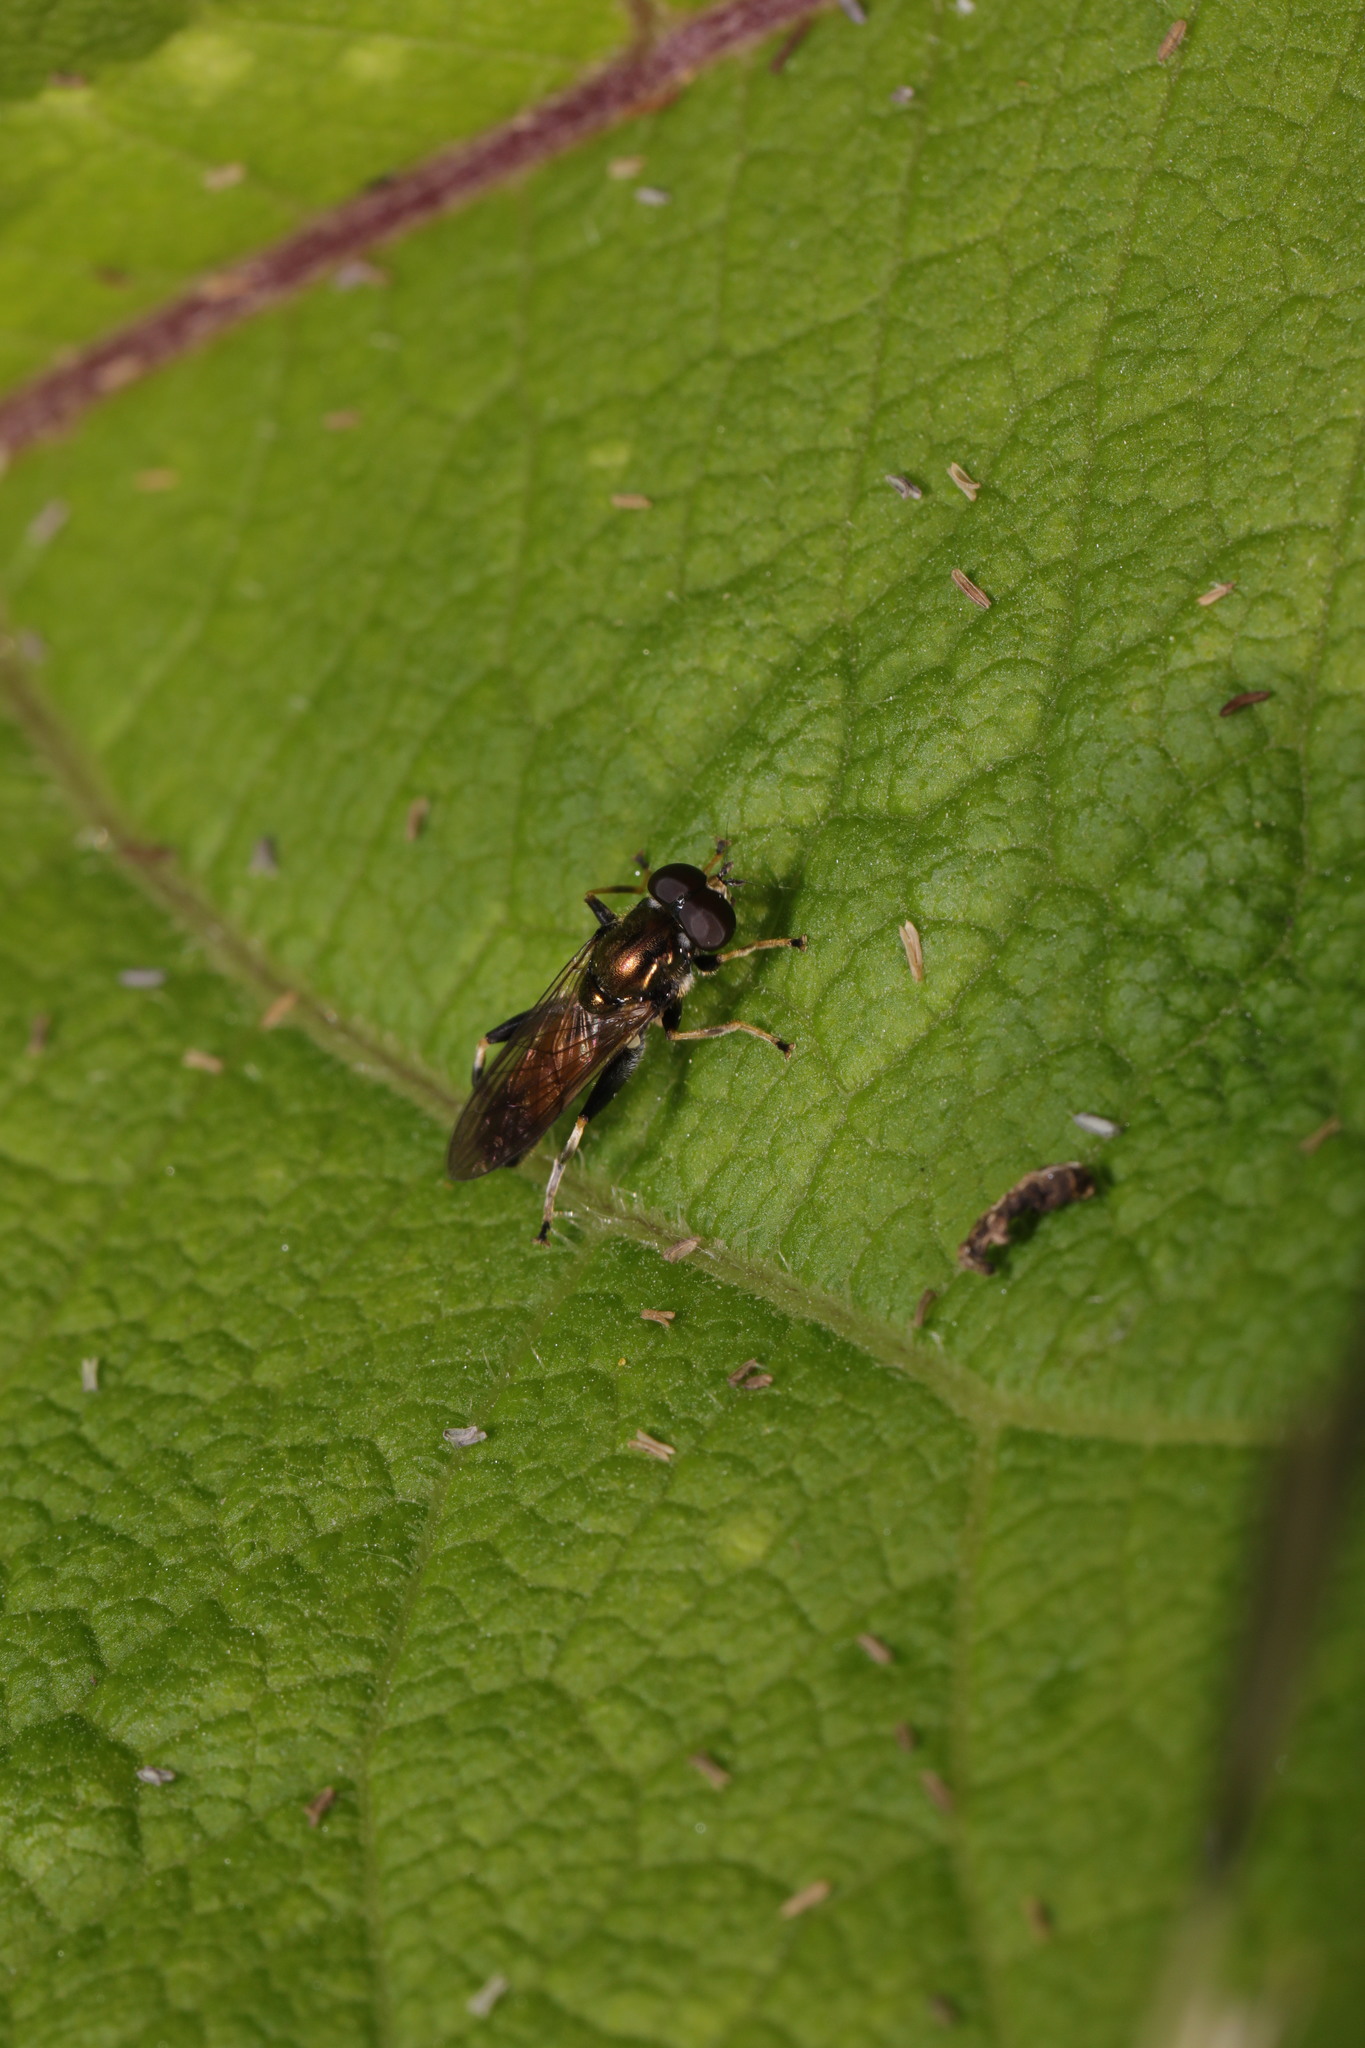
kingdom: Animalia
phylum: Arthropoda
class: Insecta
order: Diptera
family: Syrphidae
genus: Xylota
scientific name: Xylota segnis
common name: Brown-toed forest fly
